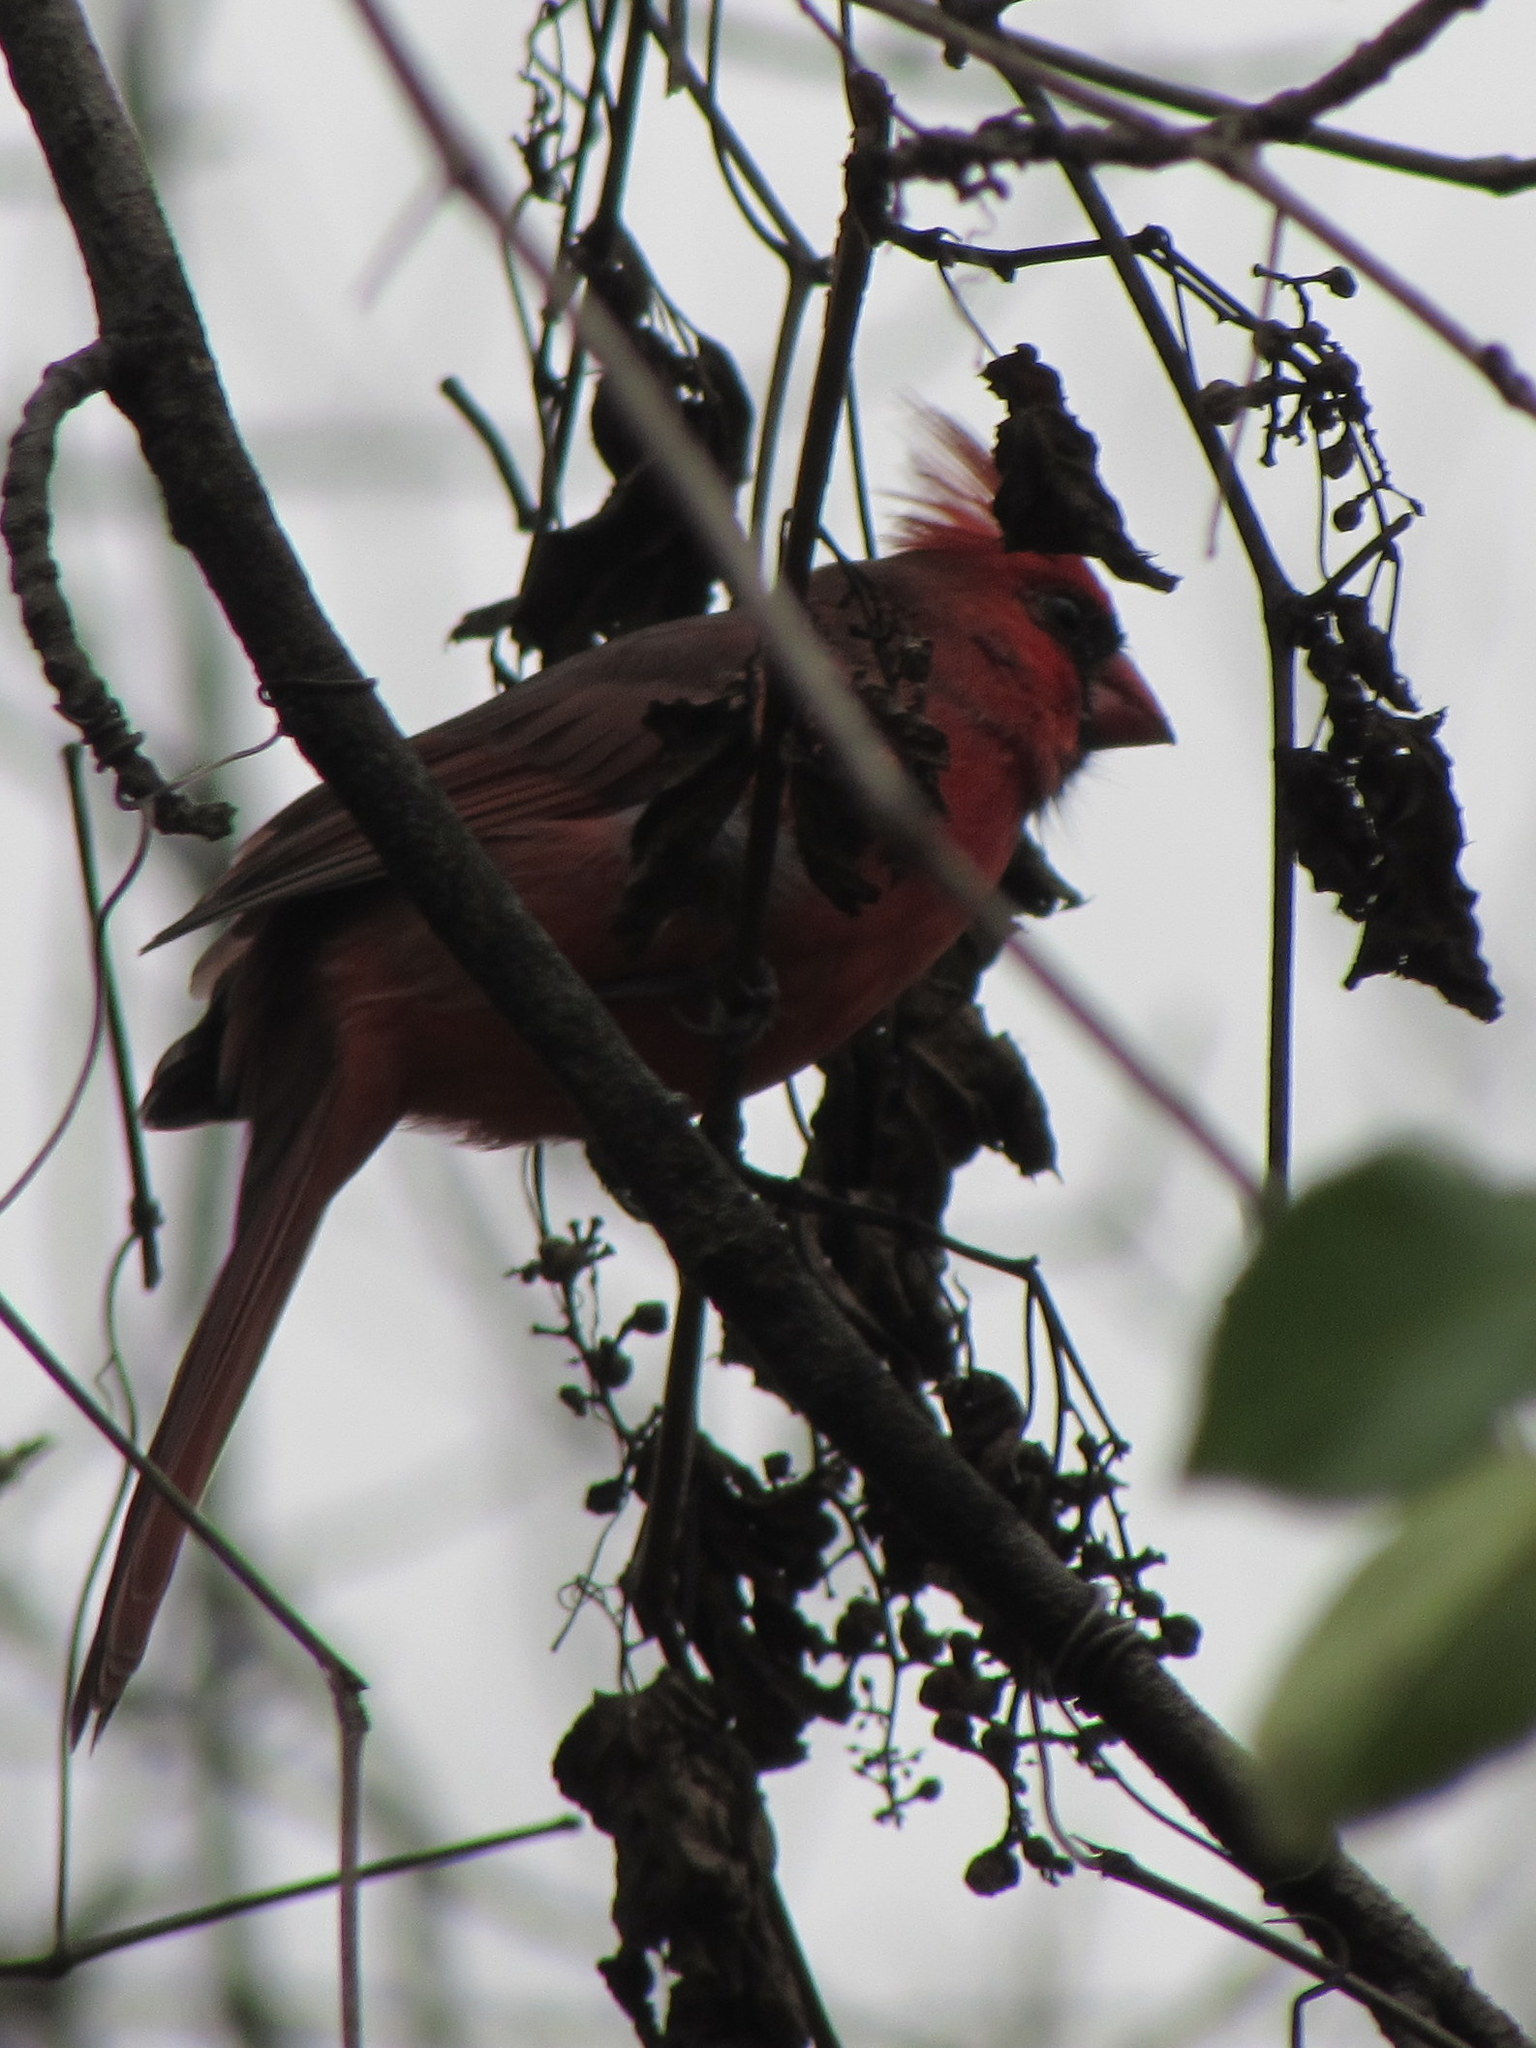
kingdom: Animalia
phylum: Chordata
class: Aves
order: Passeriformes
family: Cardinalidae
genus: Cardinalis
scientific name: Cardinalis cardinalis
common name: Northern cardinal
